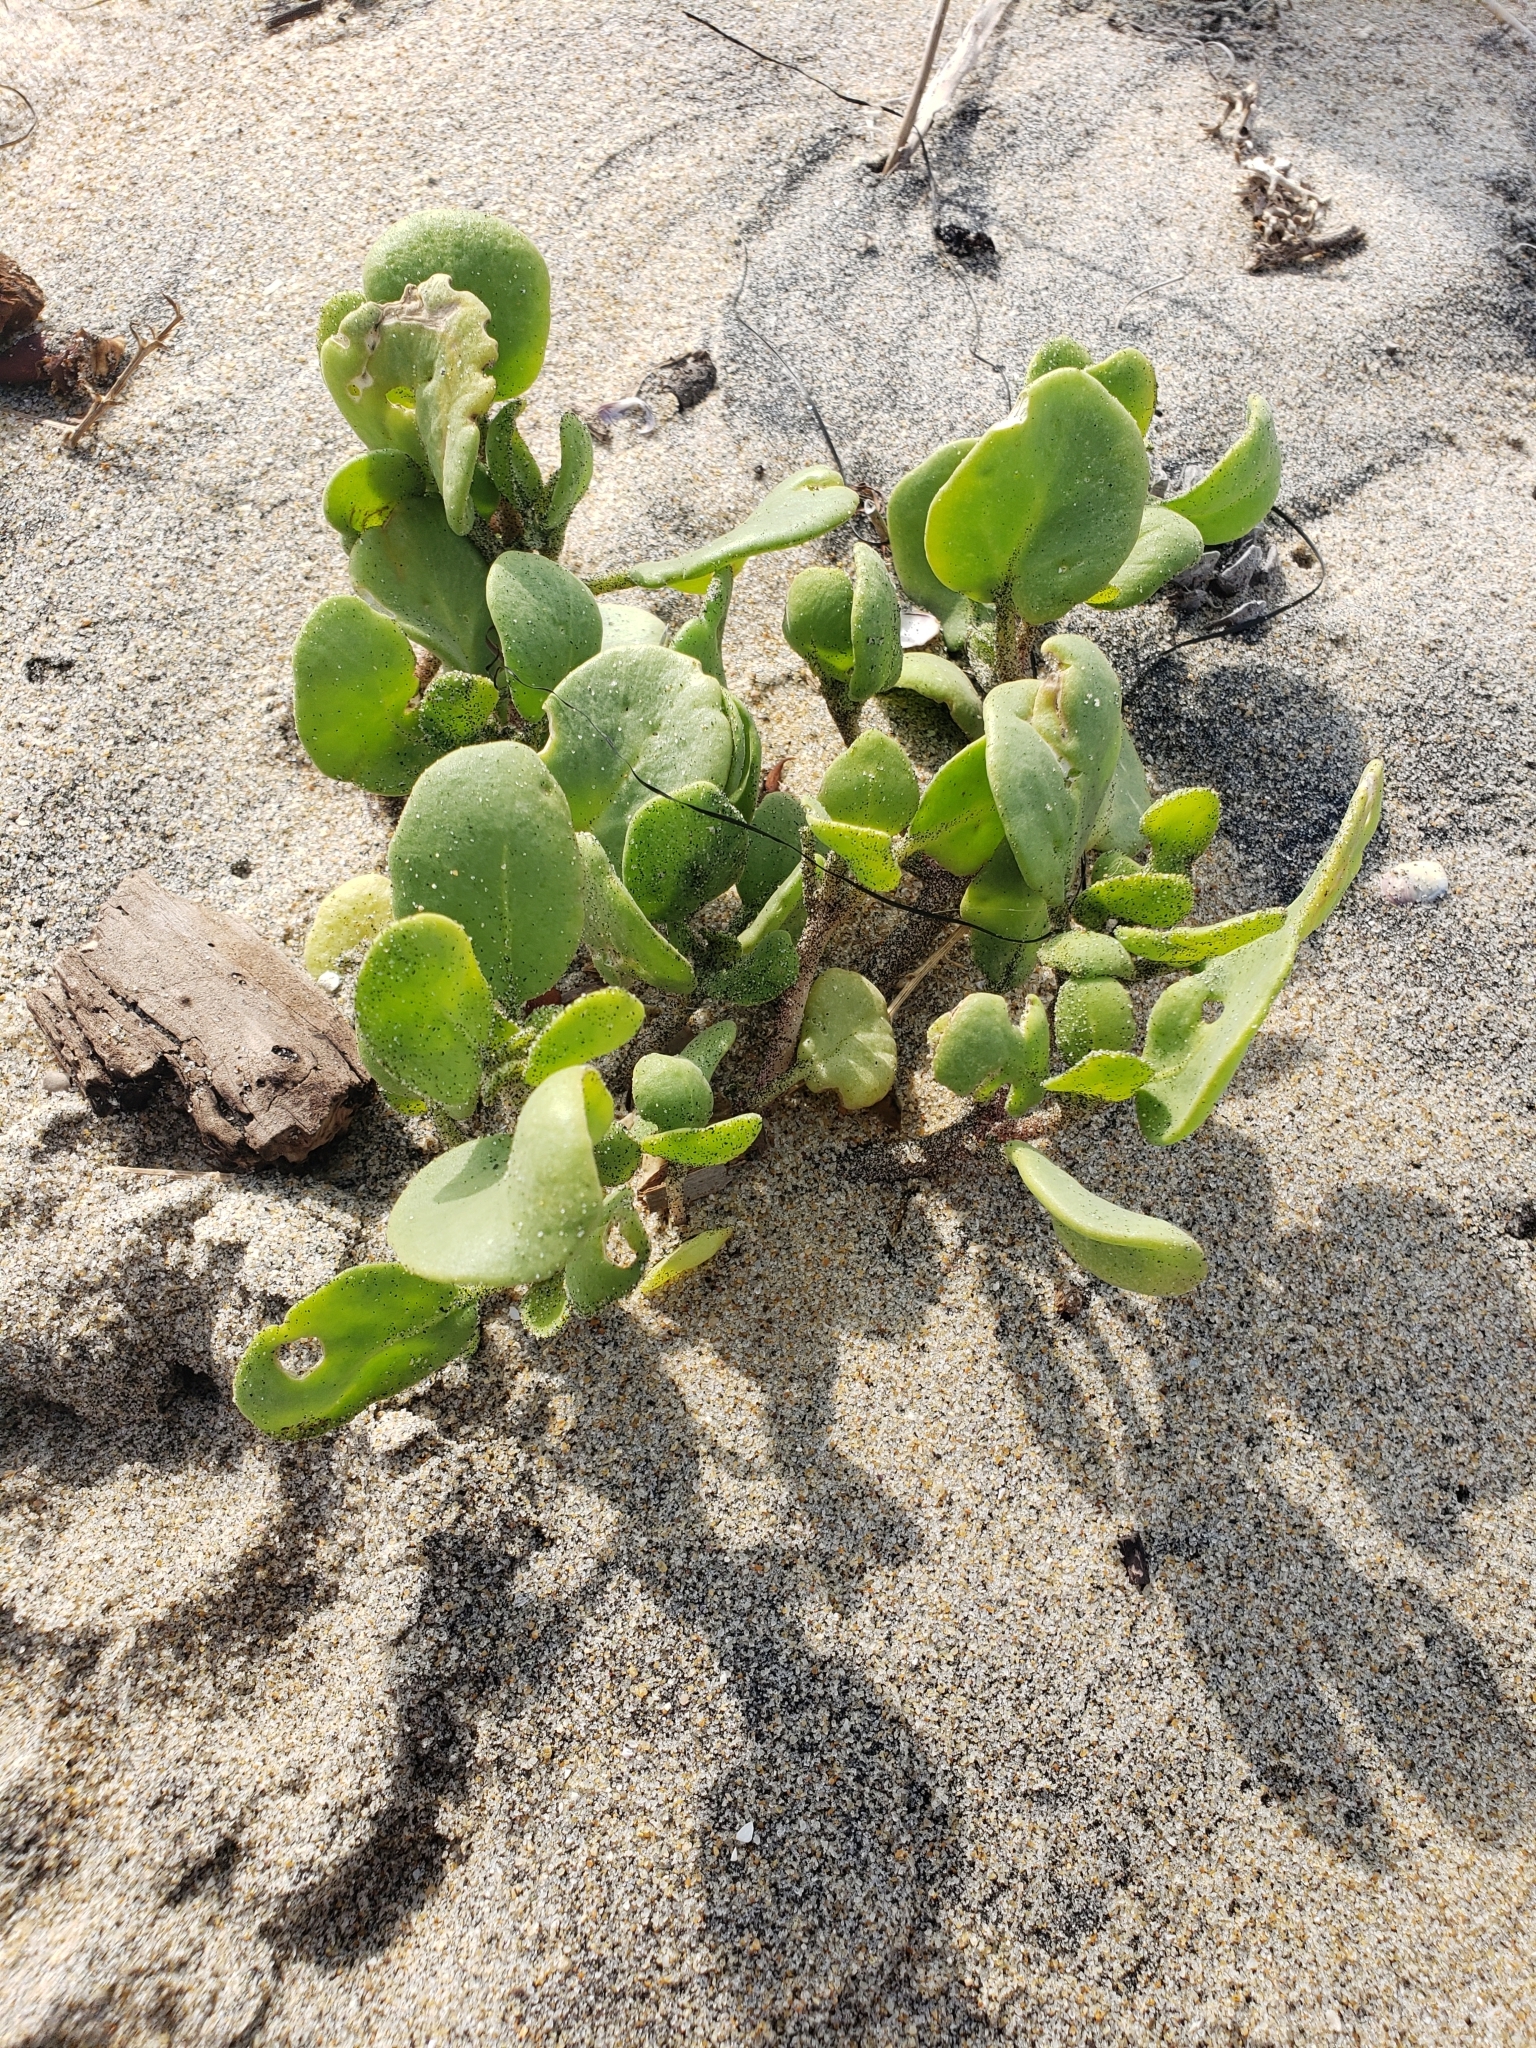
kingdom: Plantae
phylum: Tracheophyta
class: Magnoliopsida
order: Caryophyllales
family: Nyctaginaceae
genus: Abronia
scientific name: Abronia maritima
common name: Red sand-verbena
